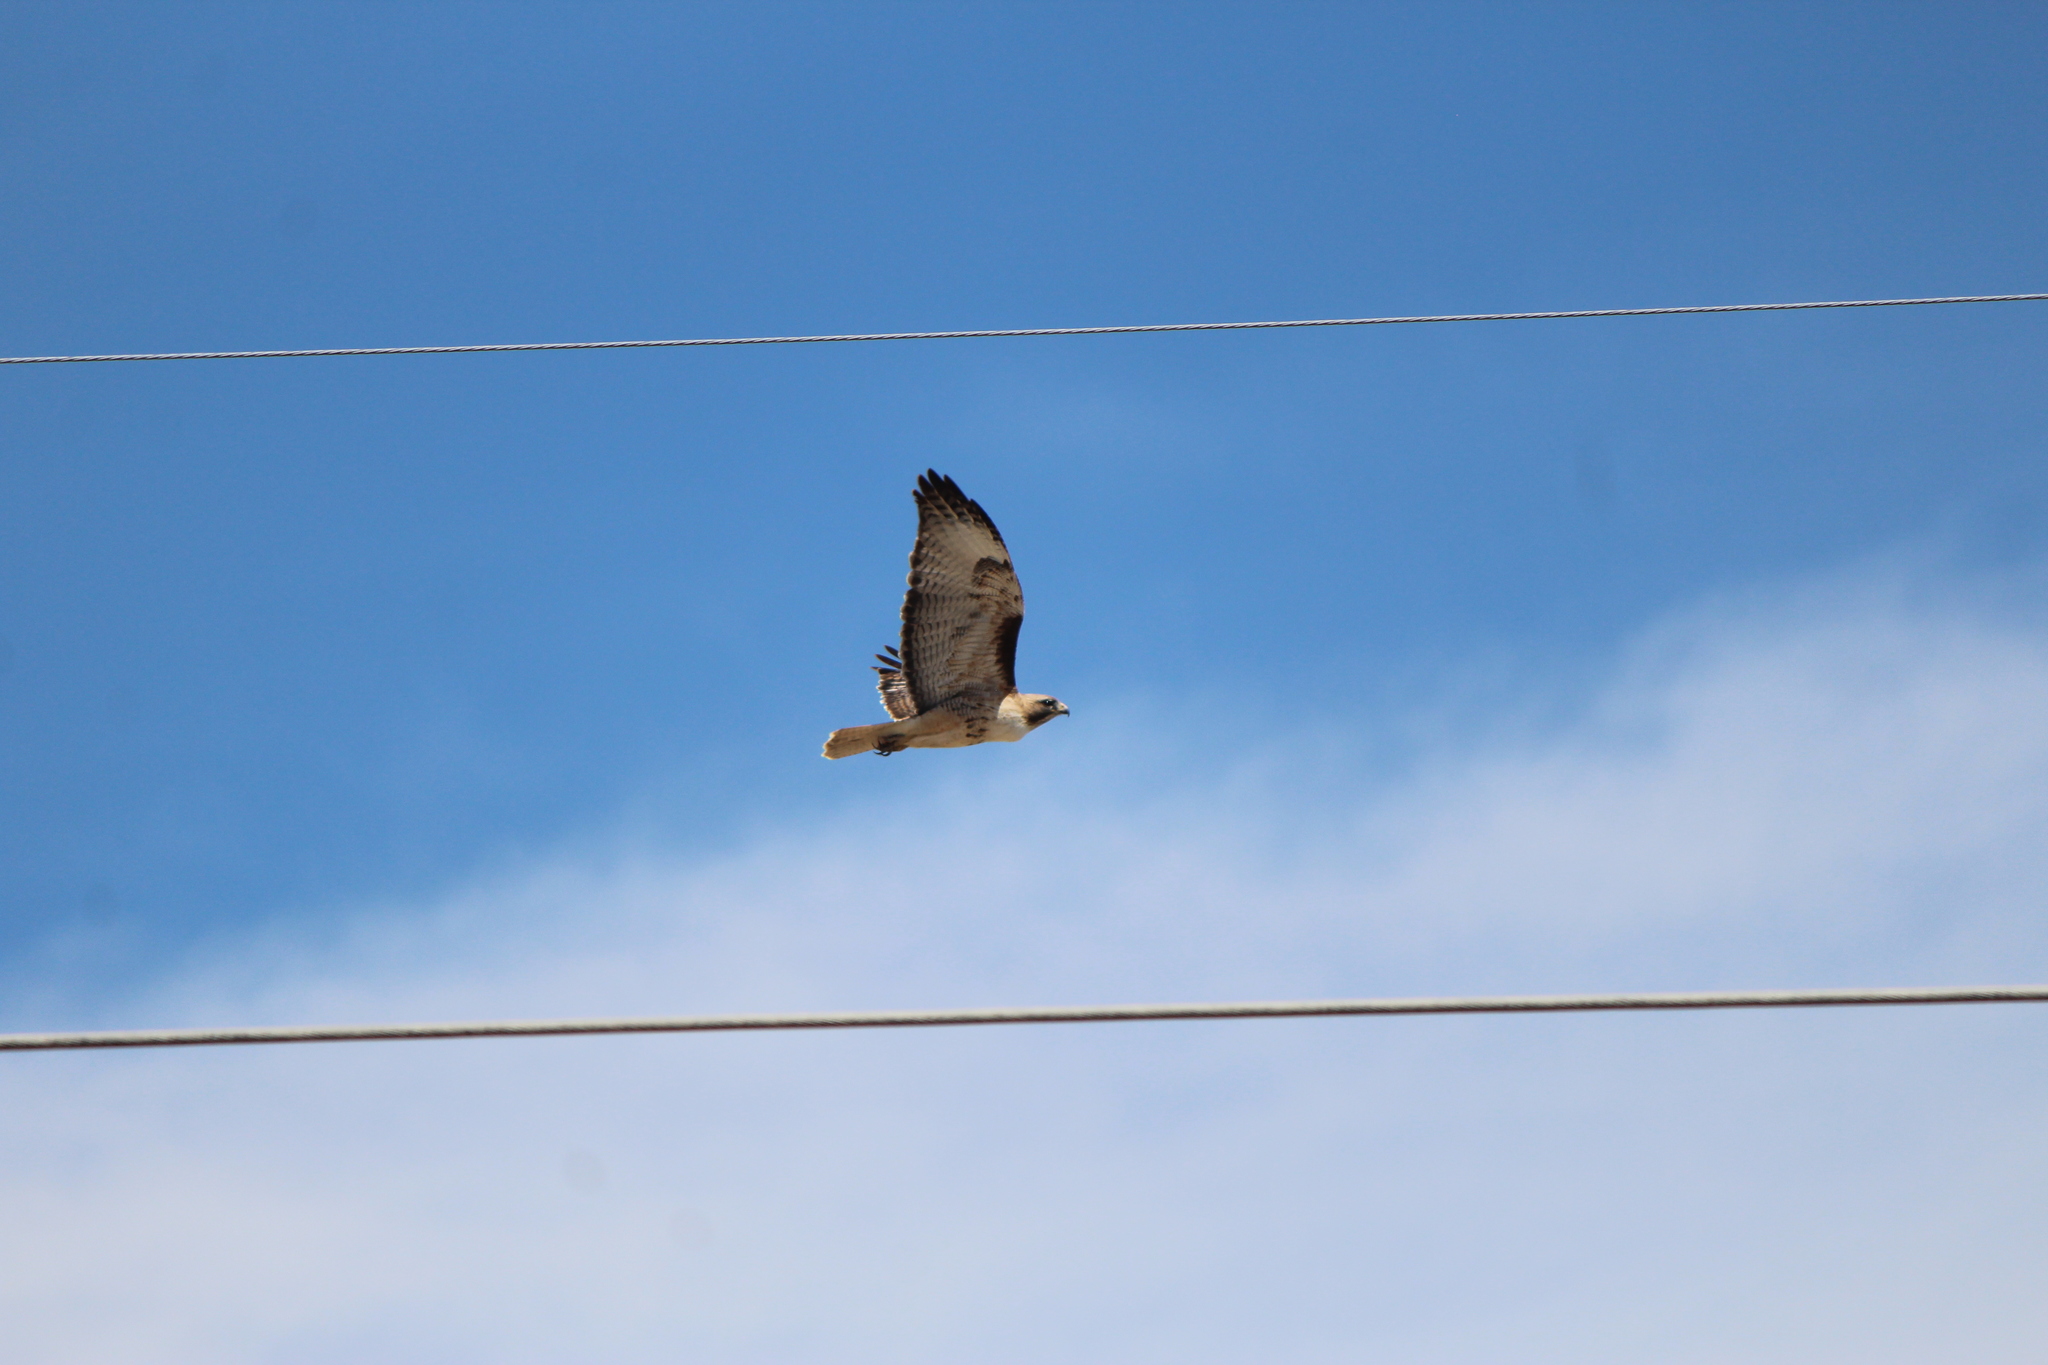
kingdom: Animalia
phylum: Chordata
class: Aves
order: Accipitriformes
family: Accipitridae
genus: Buteo
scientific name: Buteo jamaicensis
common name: Red-tailed hawk
